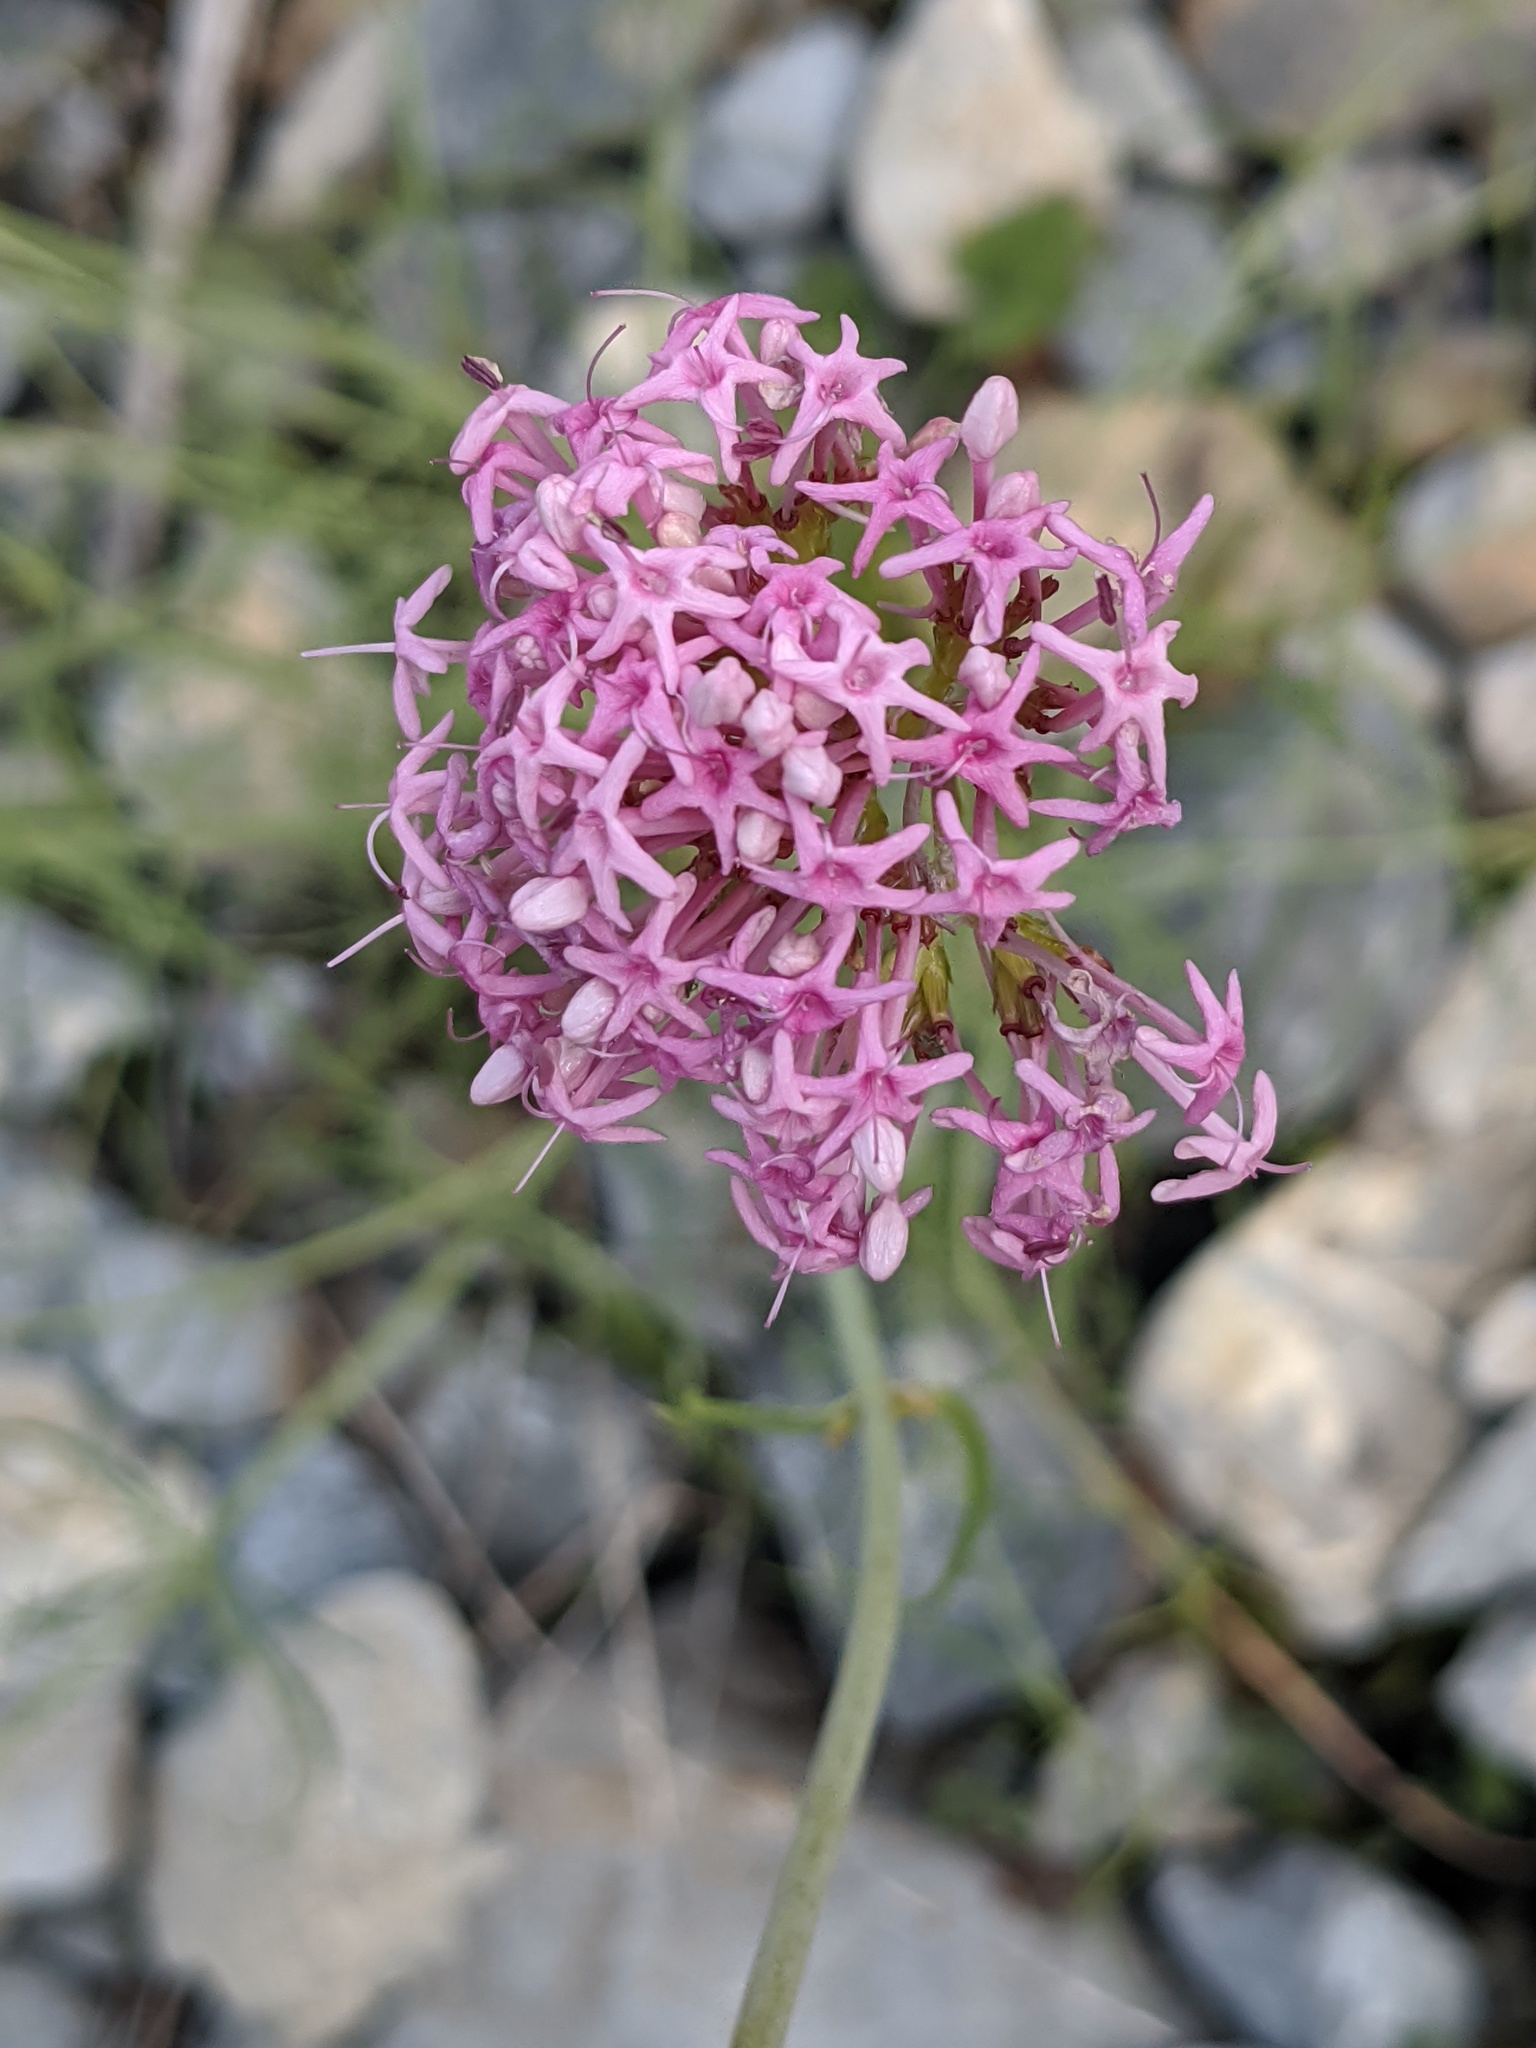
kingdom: Plantae
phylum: Tracheophyta
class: Magnoliopsida
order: Dipsacales
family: Caprifoliaceae
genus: Centranthus
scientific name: Centranthus angustifolius
